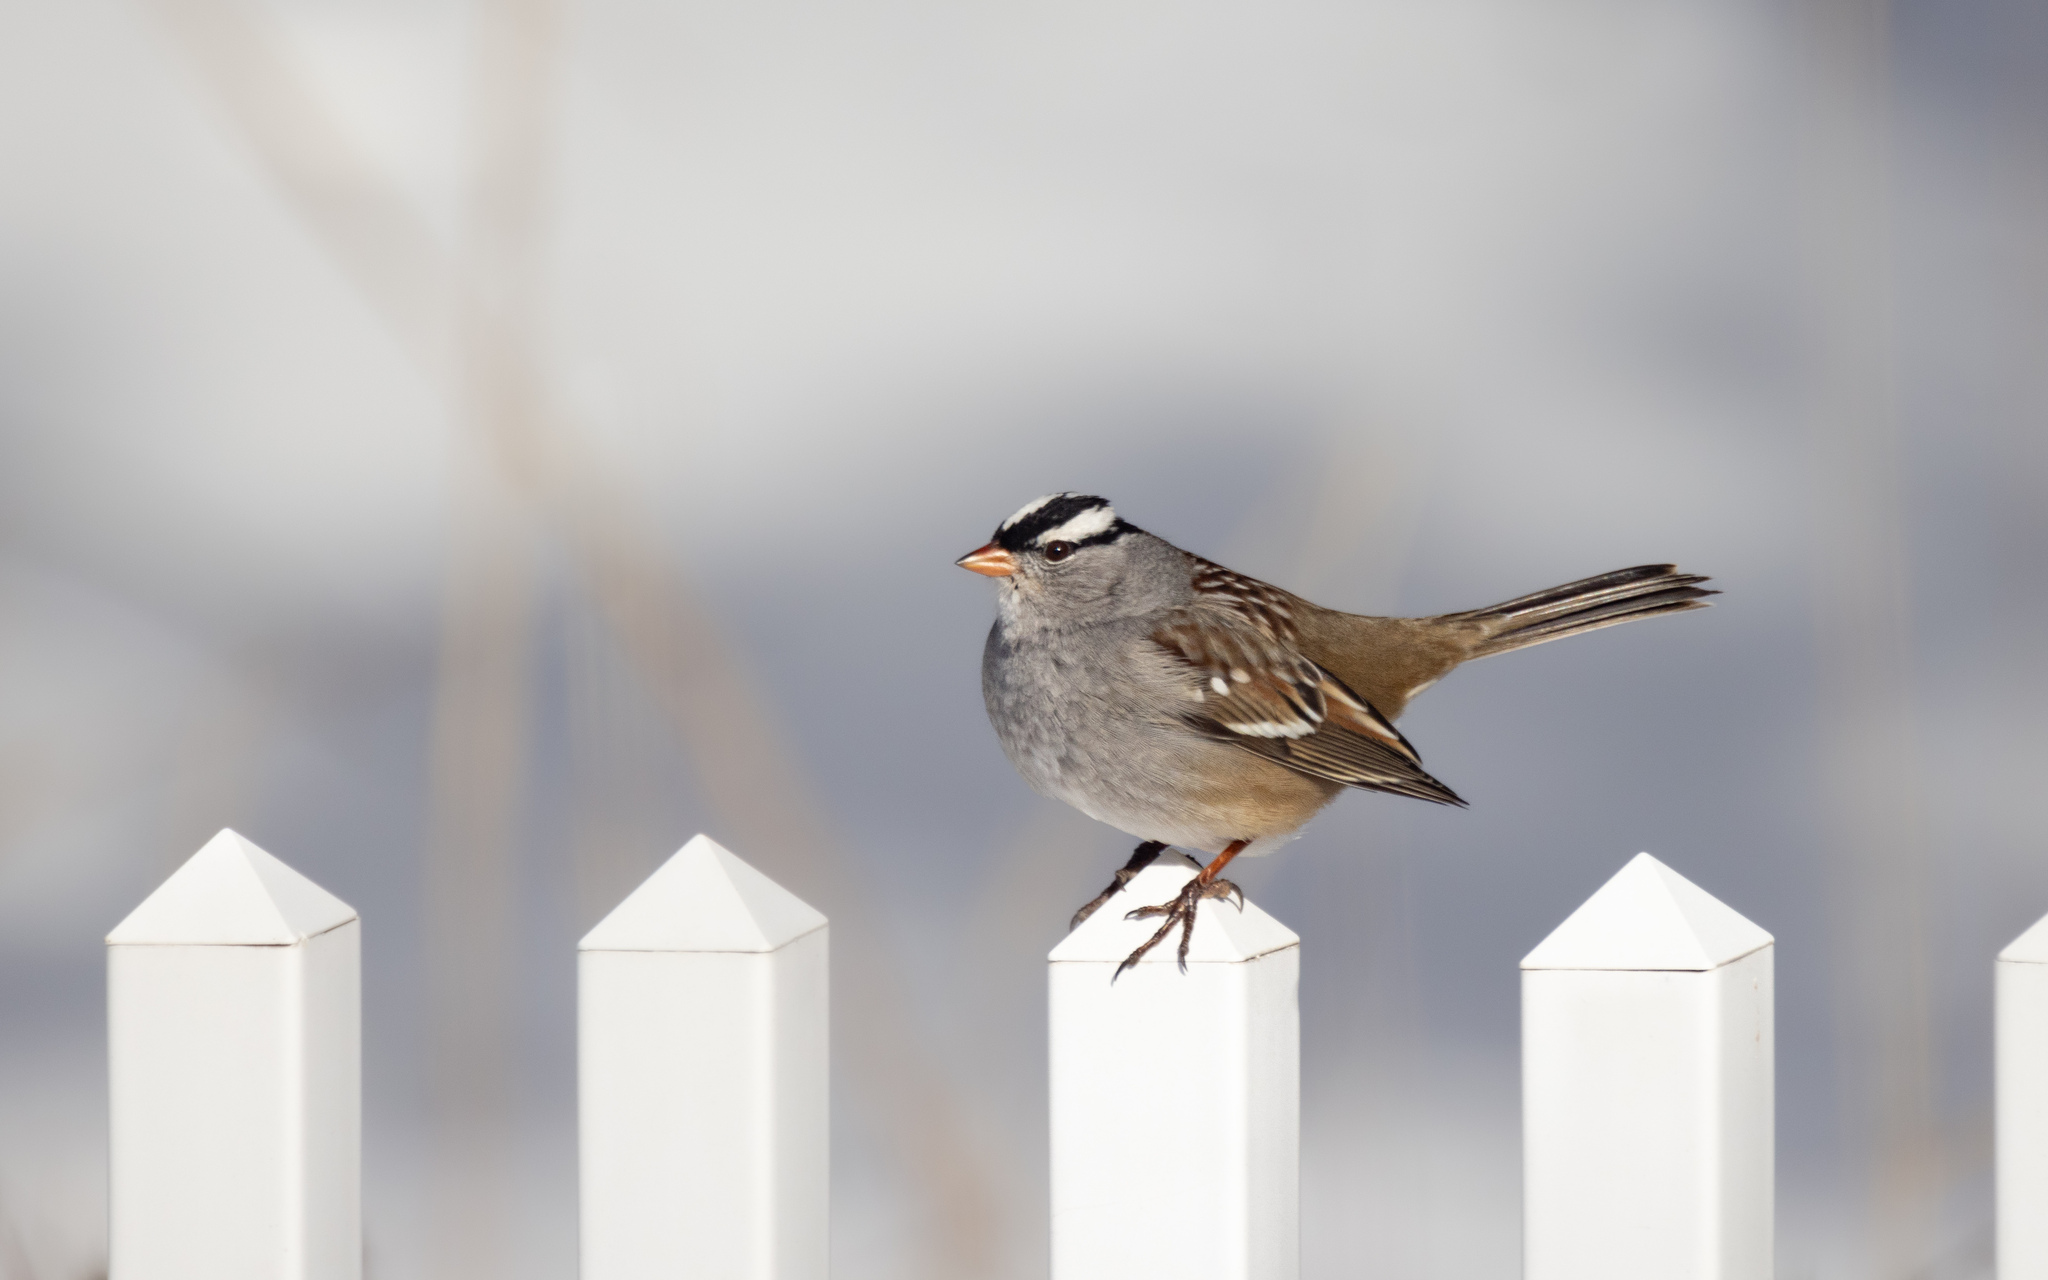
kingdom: Animalia
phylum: Chordata
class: Aves
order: Passeriformes
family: Passerellidae
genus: Zonotrichia
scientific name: Zonotrichia leucophrys
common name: White-crowned sparrow
